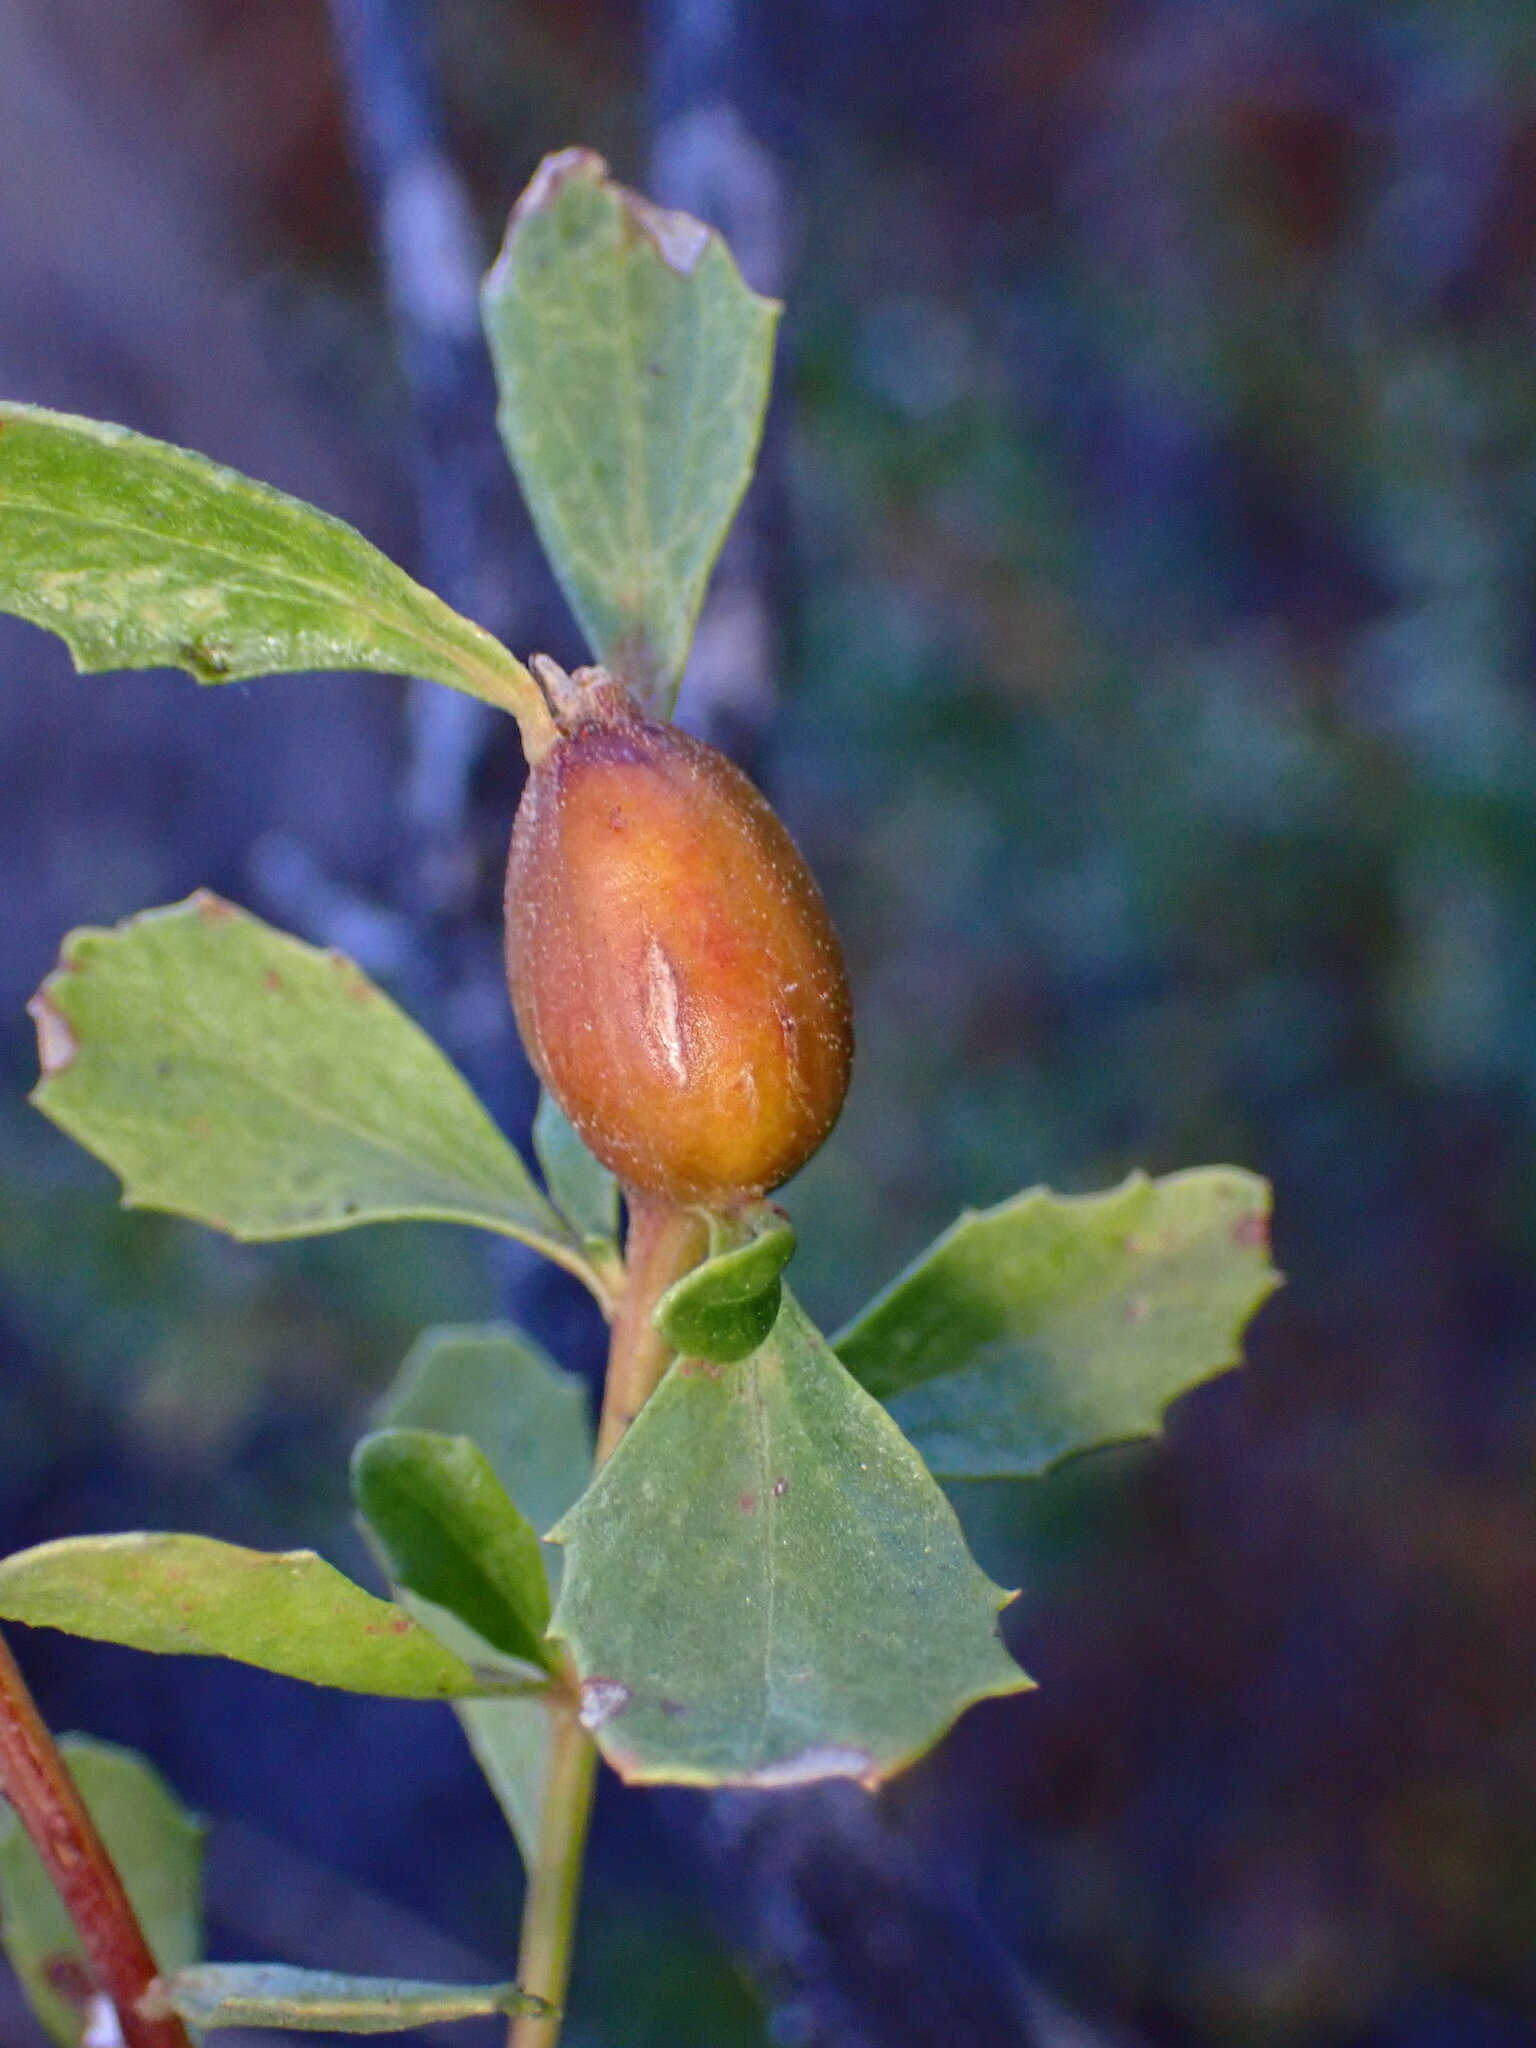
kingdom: Animalia
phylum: Arthropoda
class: Insecta
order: Lepidoptera
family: Gelechiidae
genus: Gnorimoschema
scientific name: Gnorimoschema baccharisella
